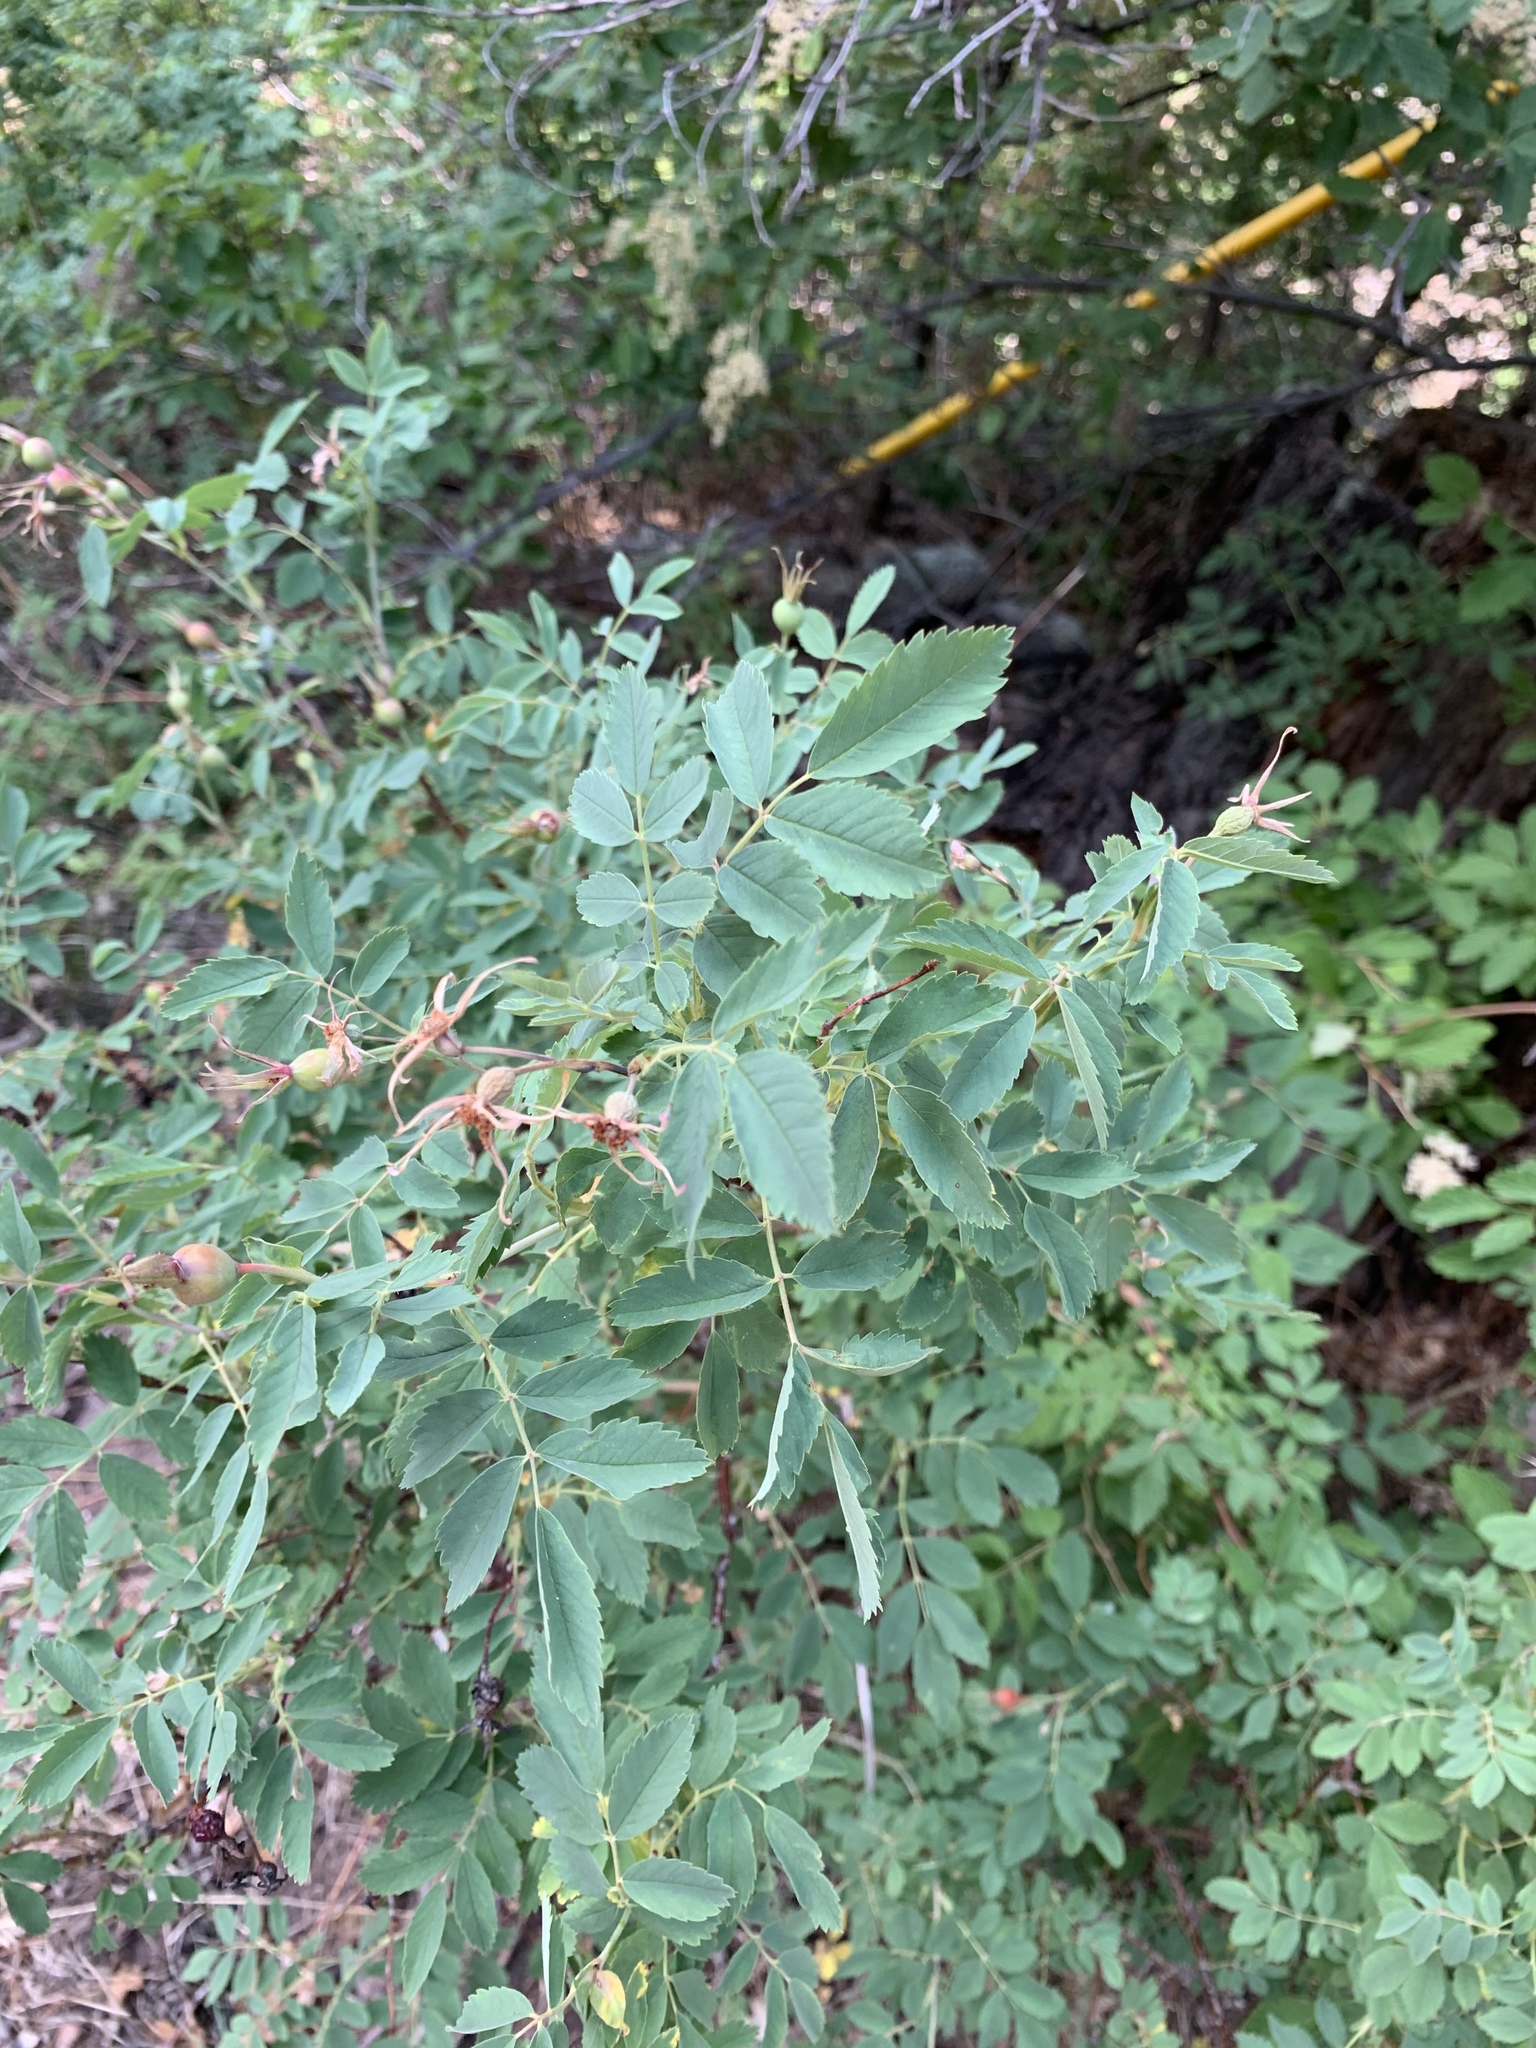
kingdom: Plantae
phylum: Tracheophyta
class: Magnoliopsida
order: Rosales
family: Rosaceae
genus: Rosa
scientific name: Rosa woodsii
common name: Woods's rose
